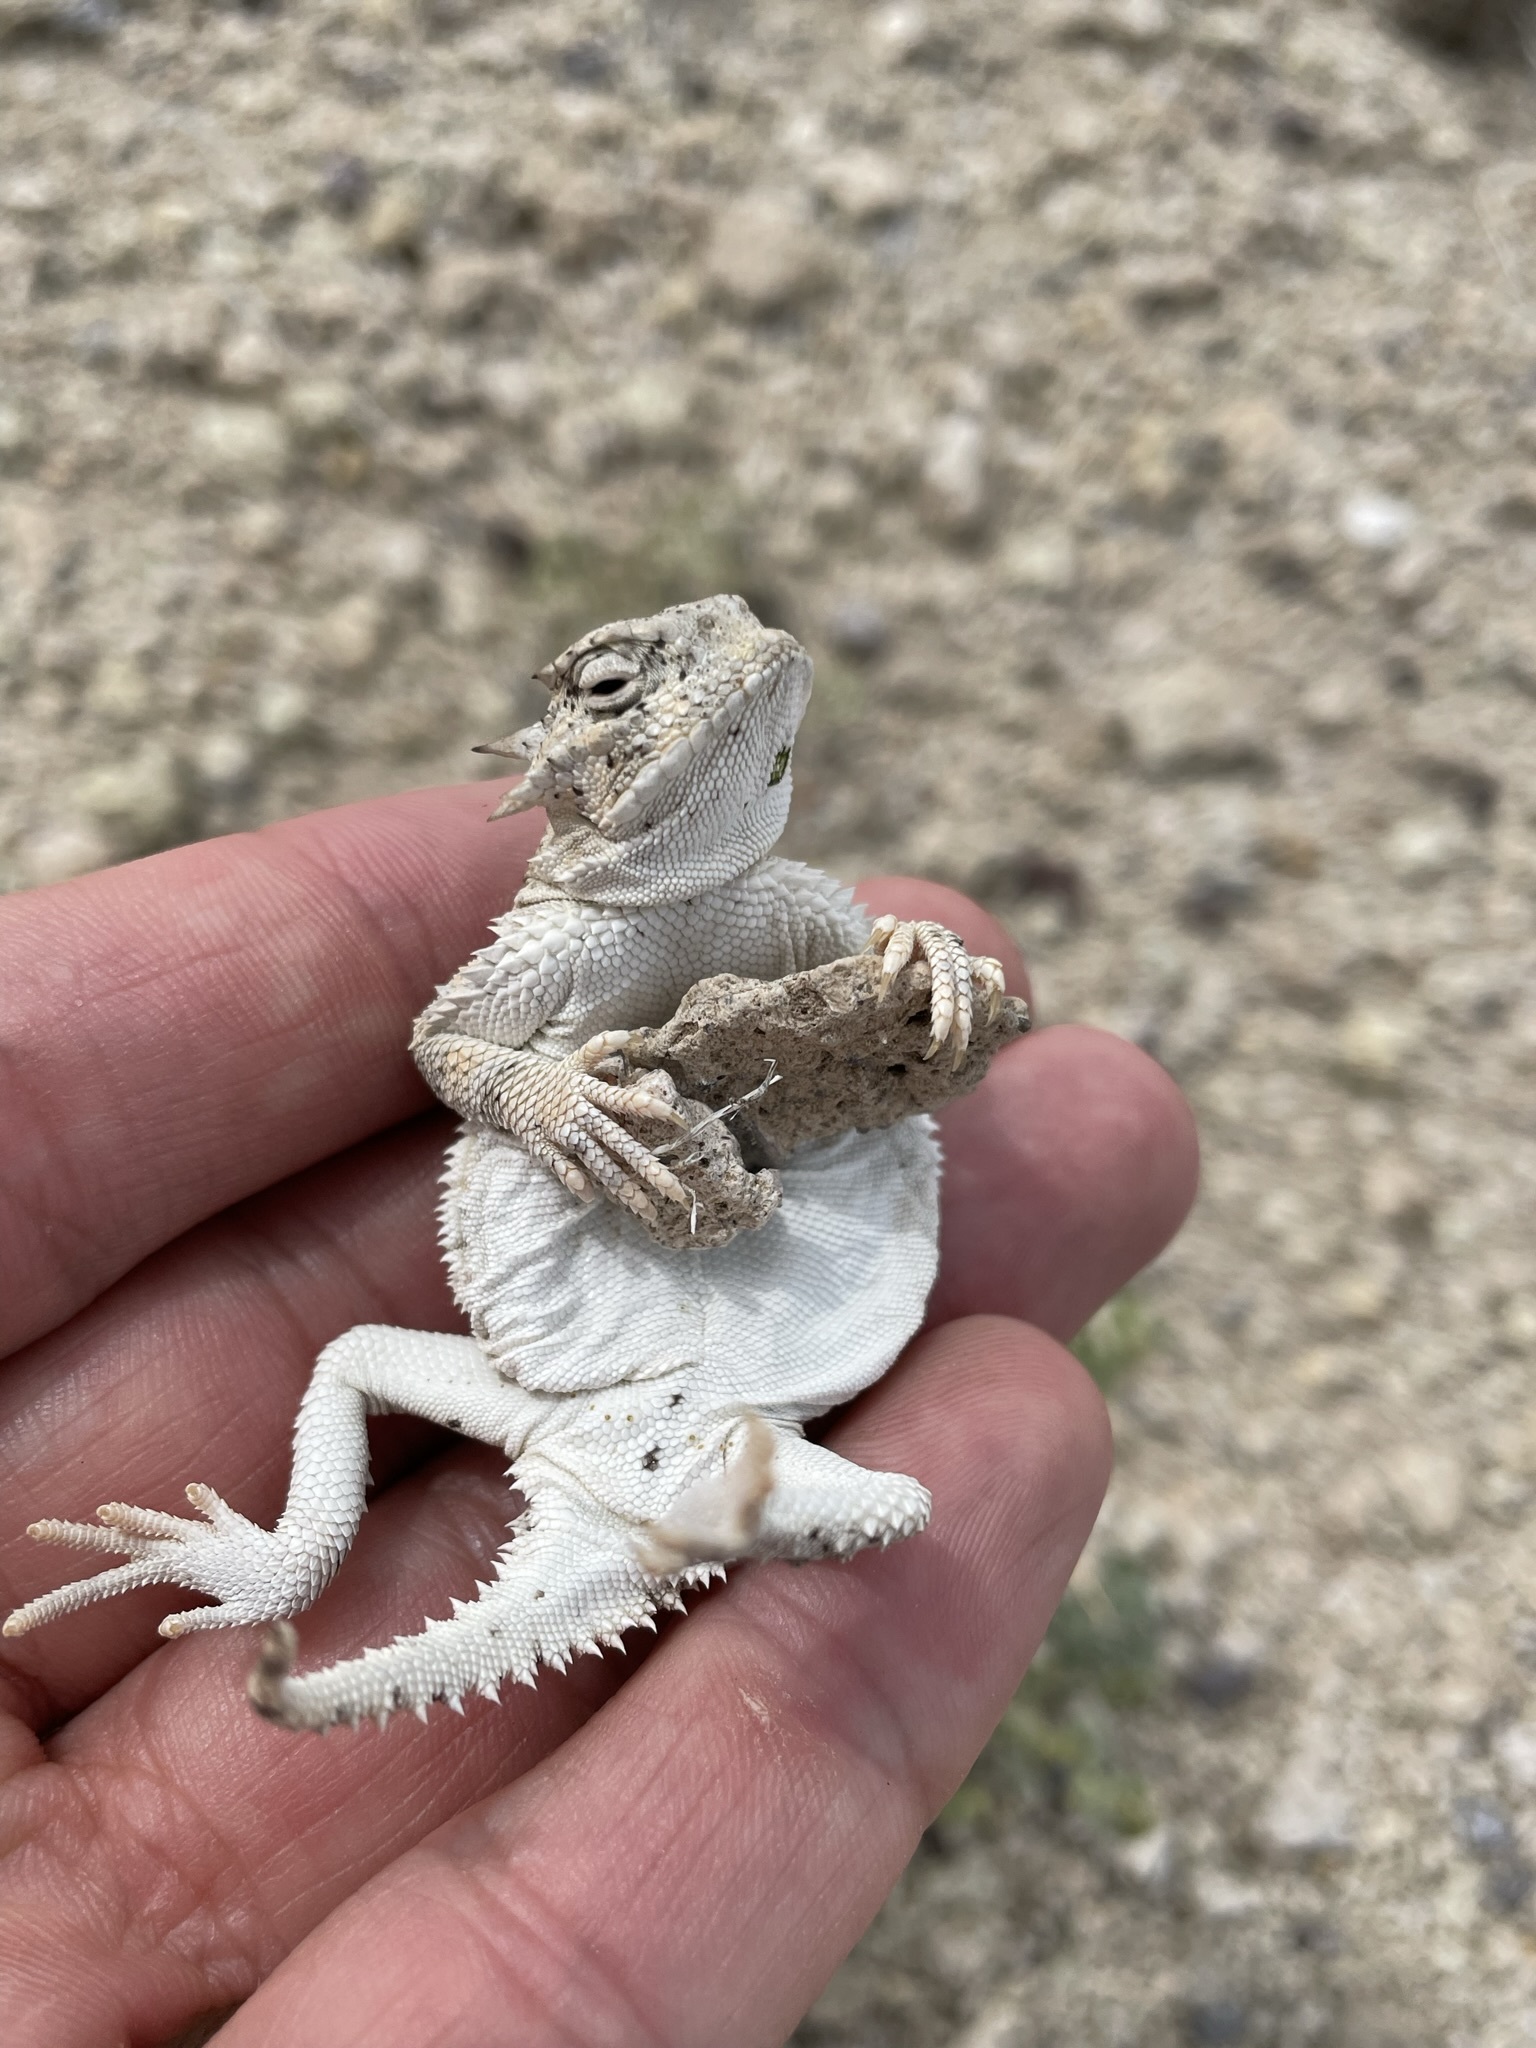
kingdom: Animalia
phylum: Chordata
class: Squamata
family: Phrynosomatidae
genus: Phrynosoma
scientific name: Phrynosoma platyrhinos
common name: Desert horned lizard
